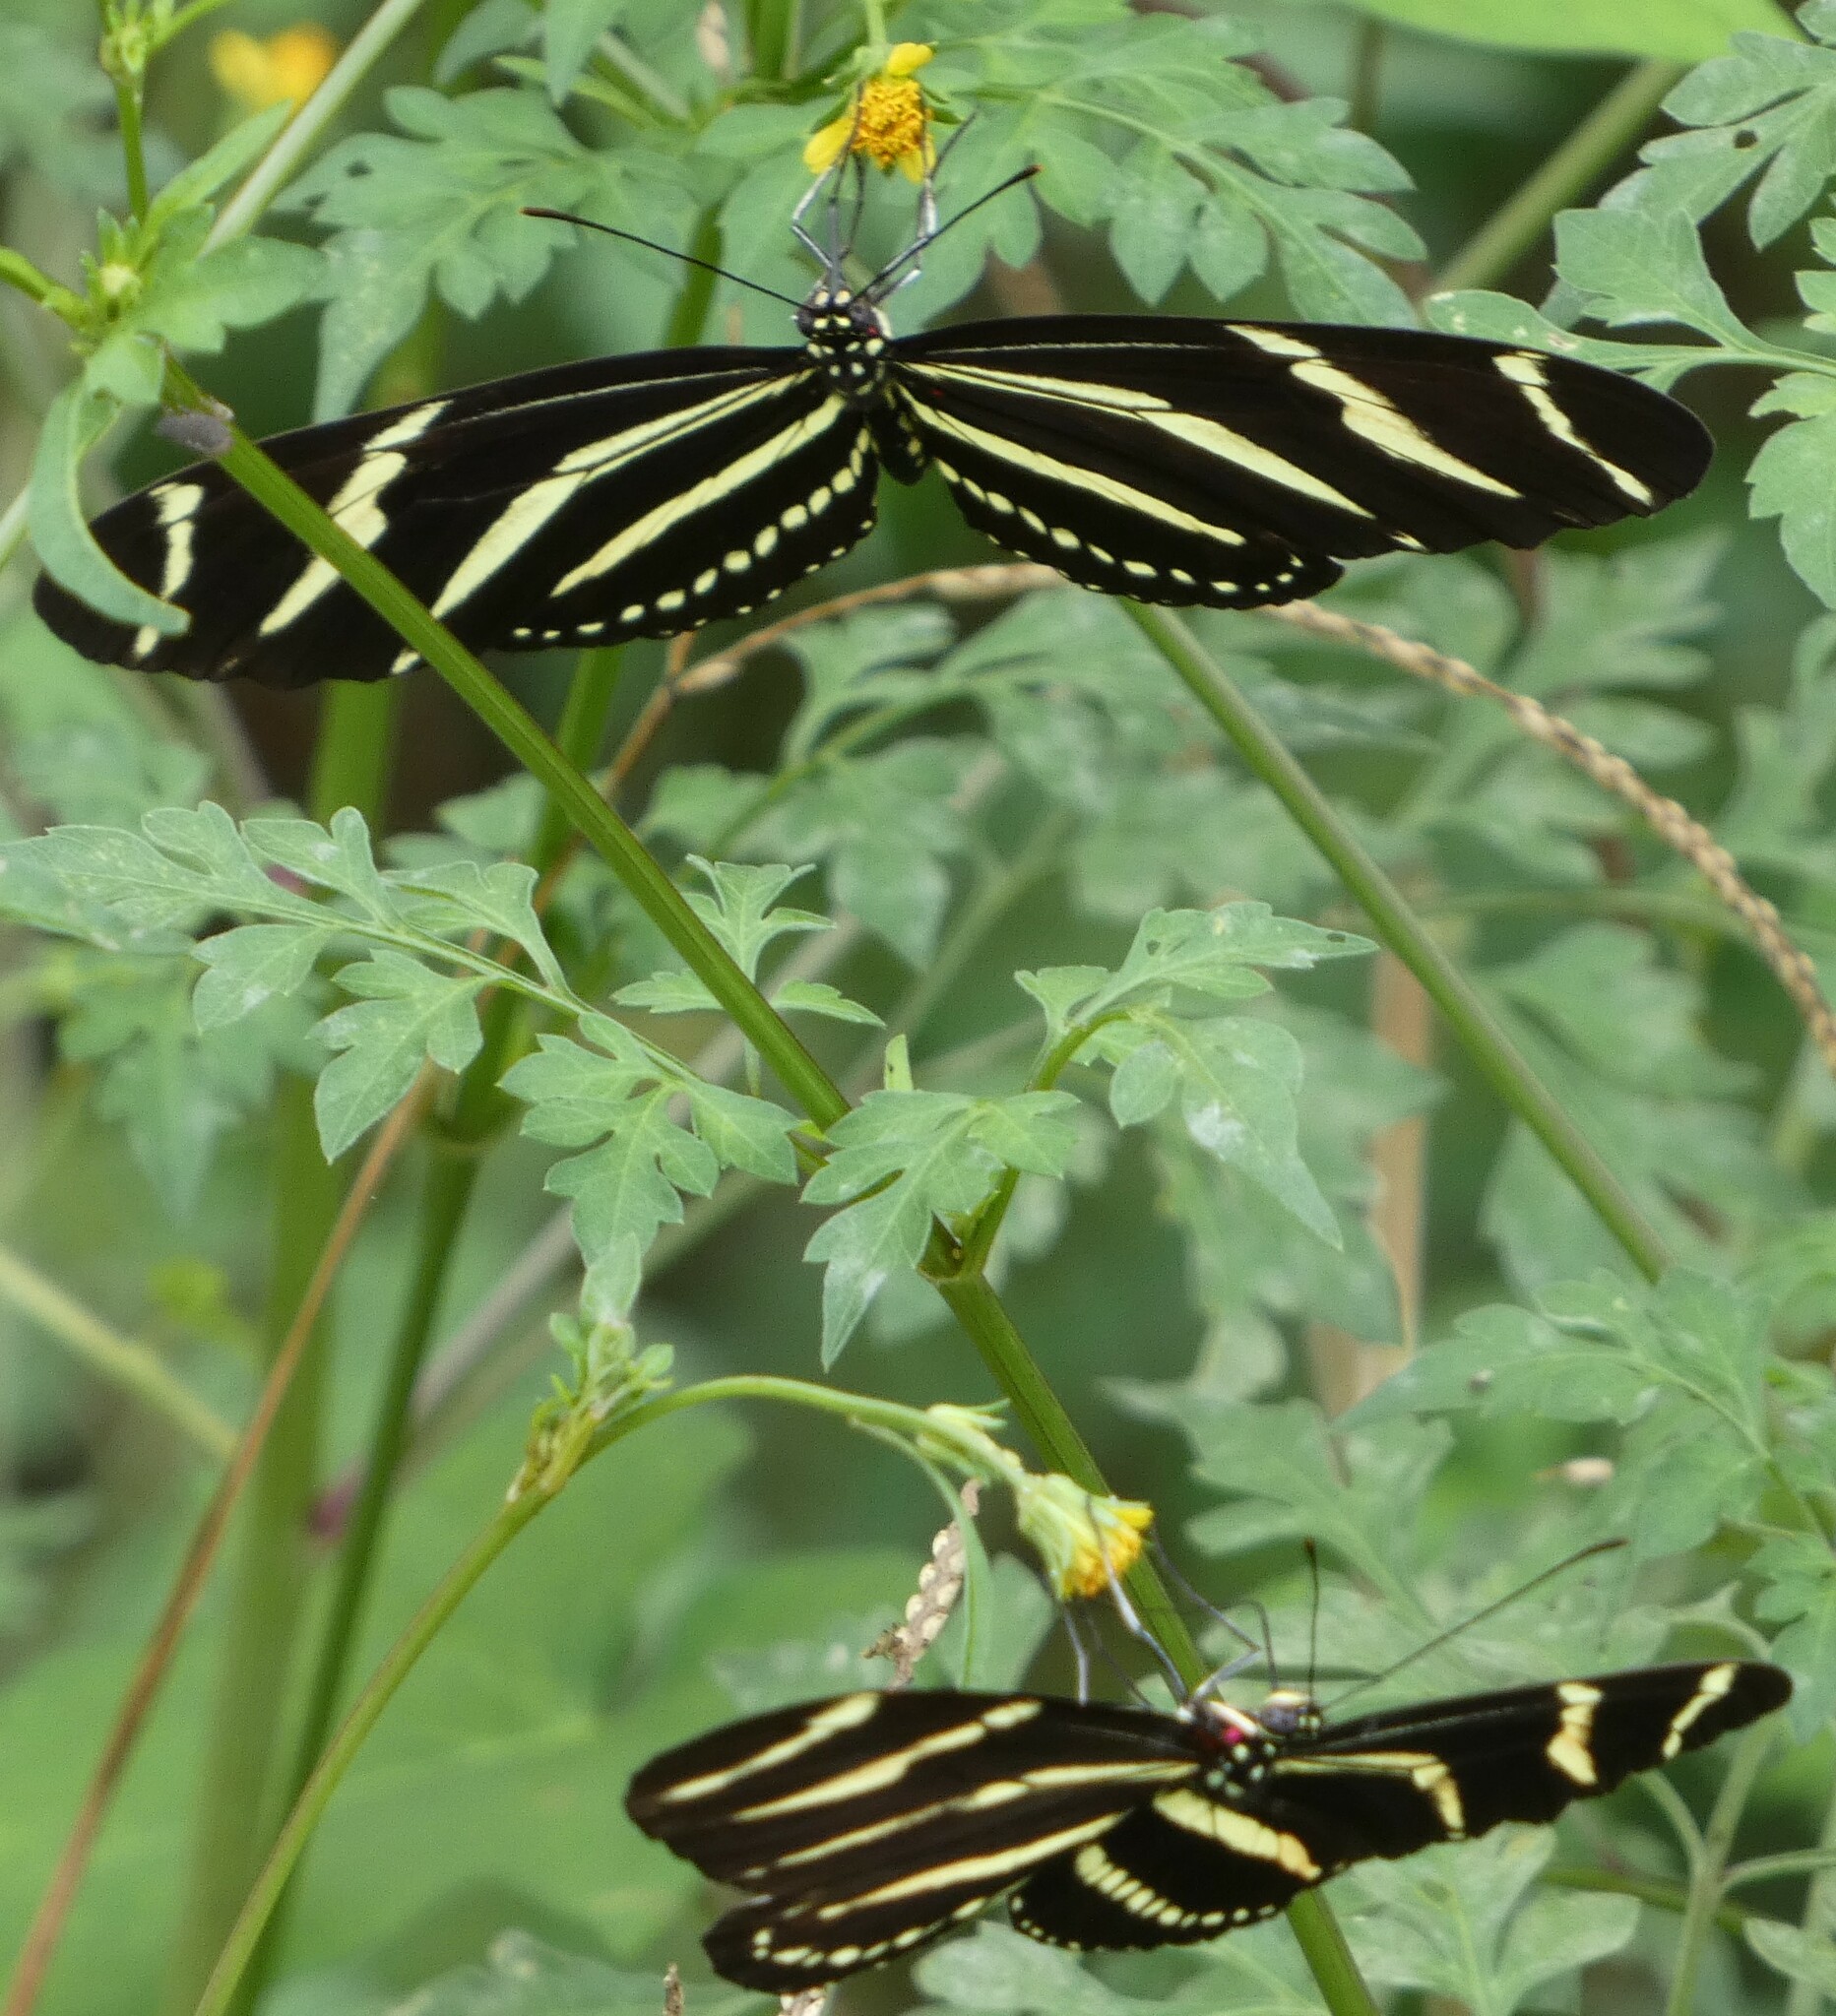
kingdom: Animalia
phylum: Arthropoda
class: Insecta
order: Lepidoptera
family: Nymphalidae
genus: Heliconius
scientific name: Heliconius charithonia
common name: Zebra long wing
